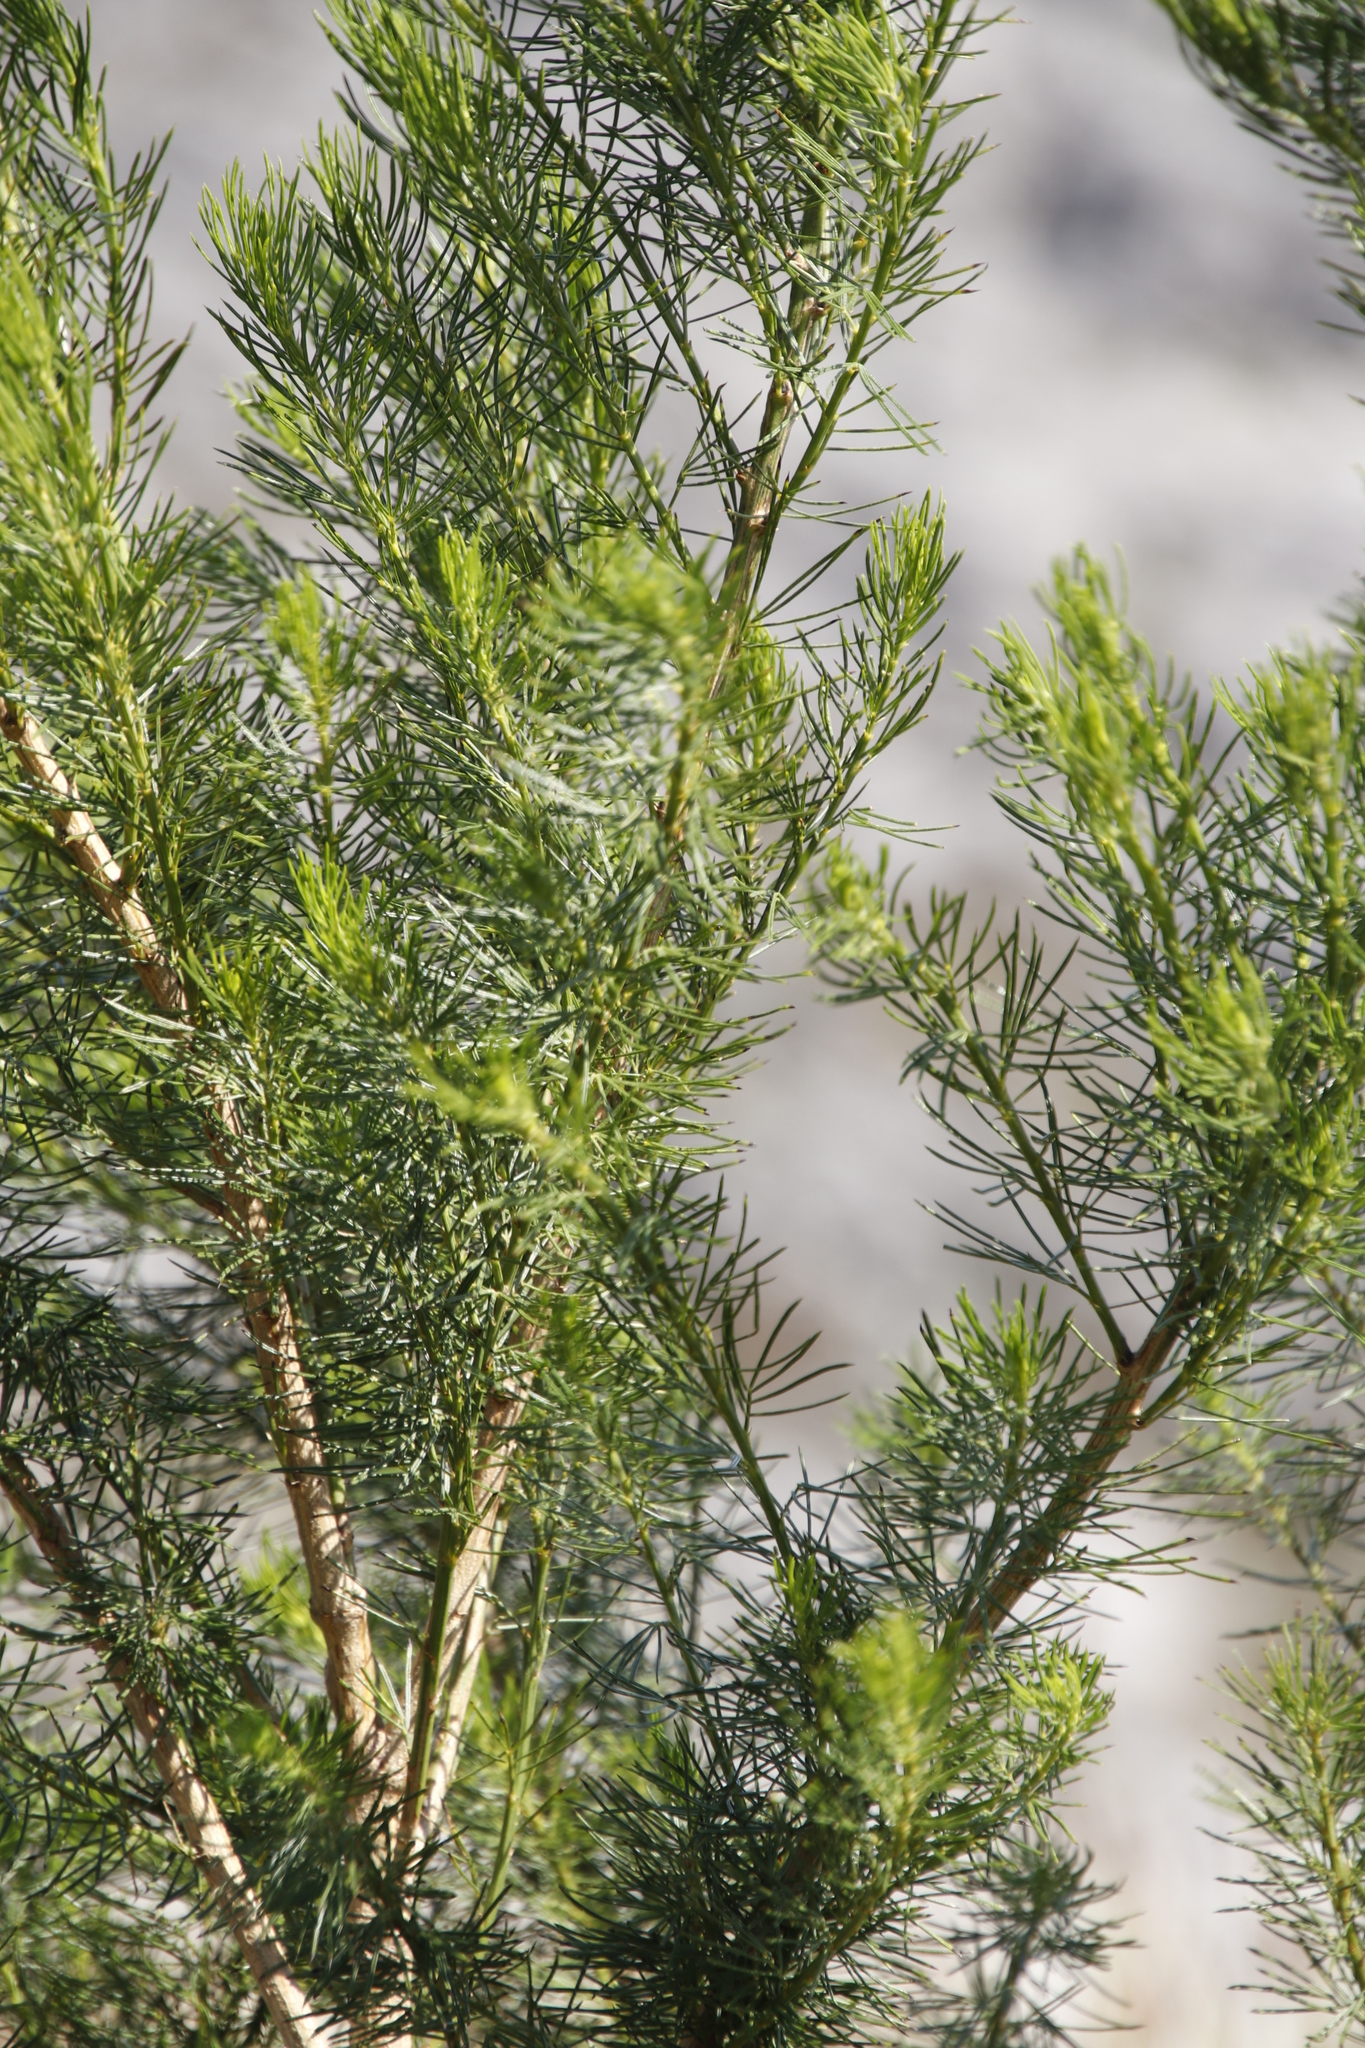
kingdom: Plantae
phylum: Tracheophyta
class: Magnoliopsida
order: Fabales
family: Fabaceae
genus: Psoralea
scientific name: Psoralea pinnata
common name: African scurfpea
